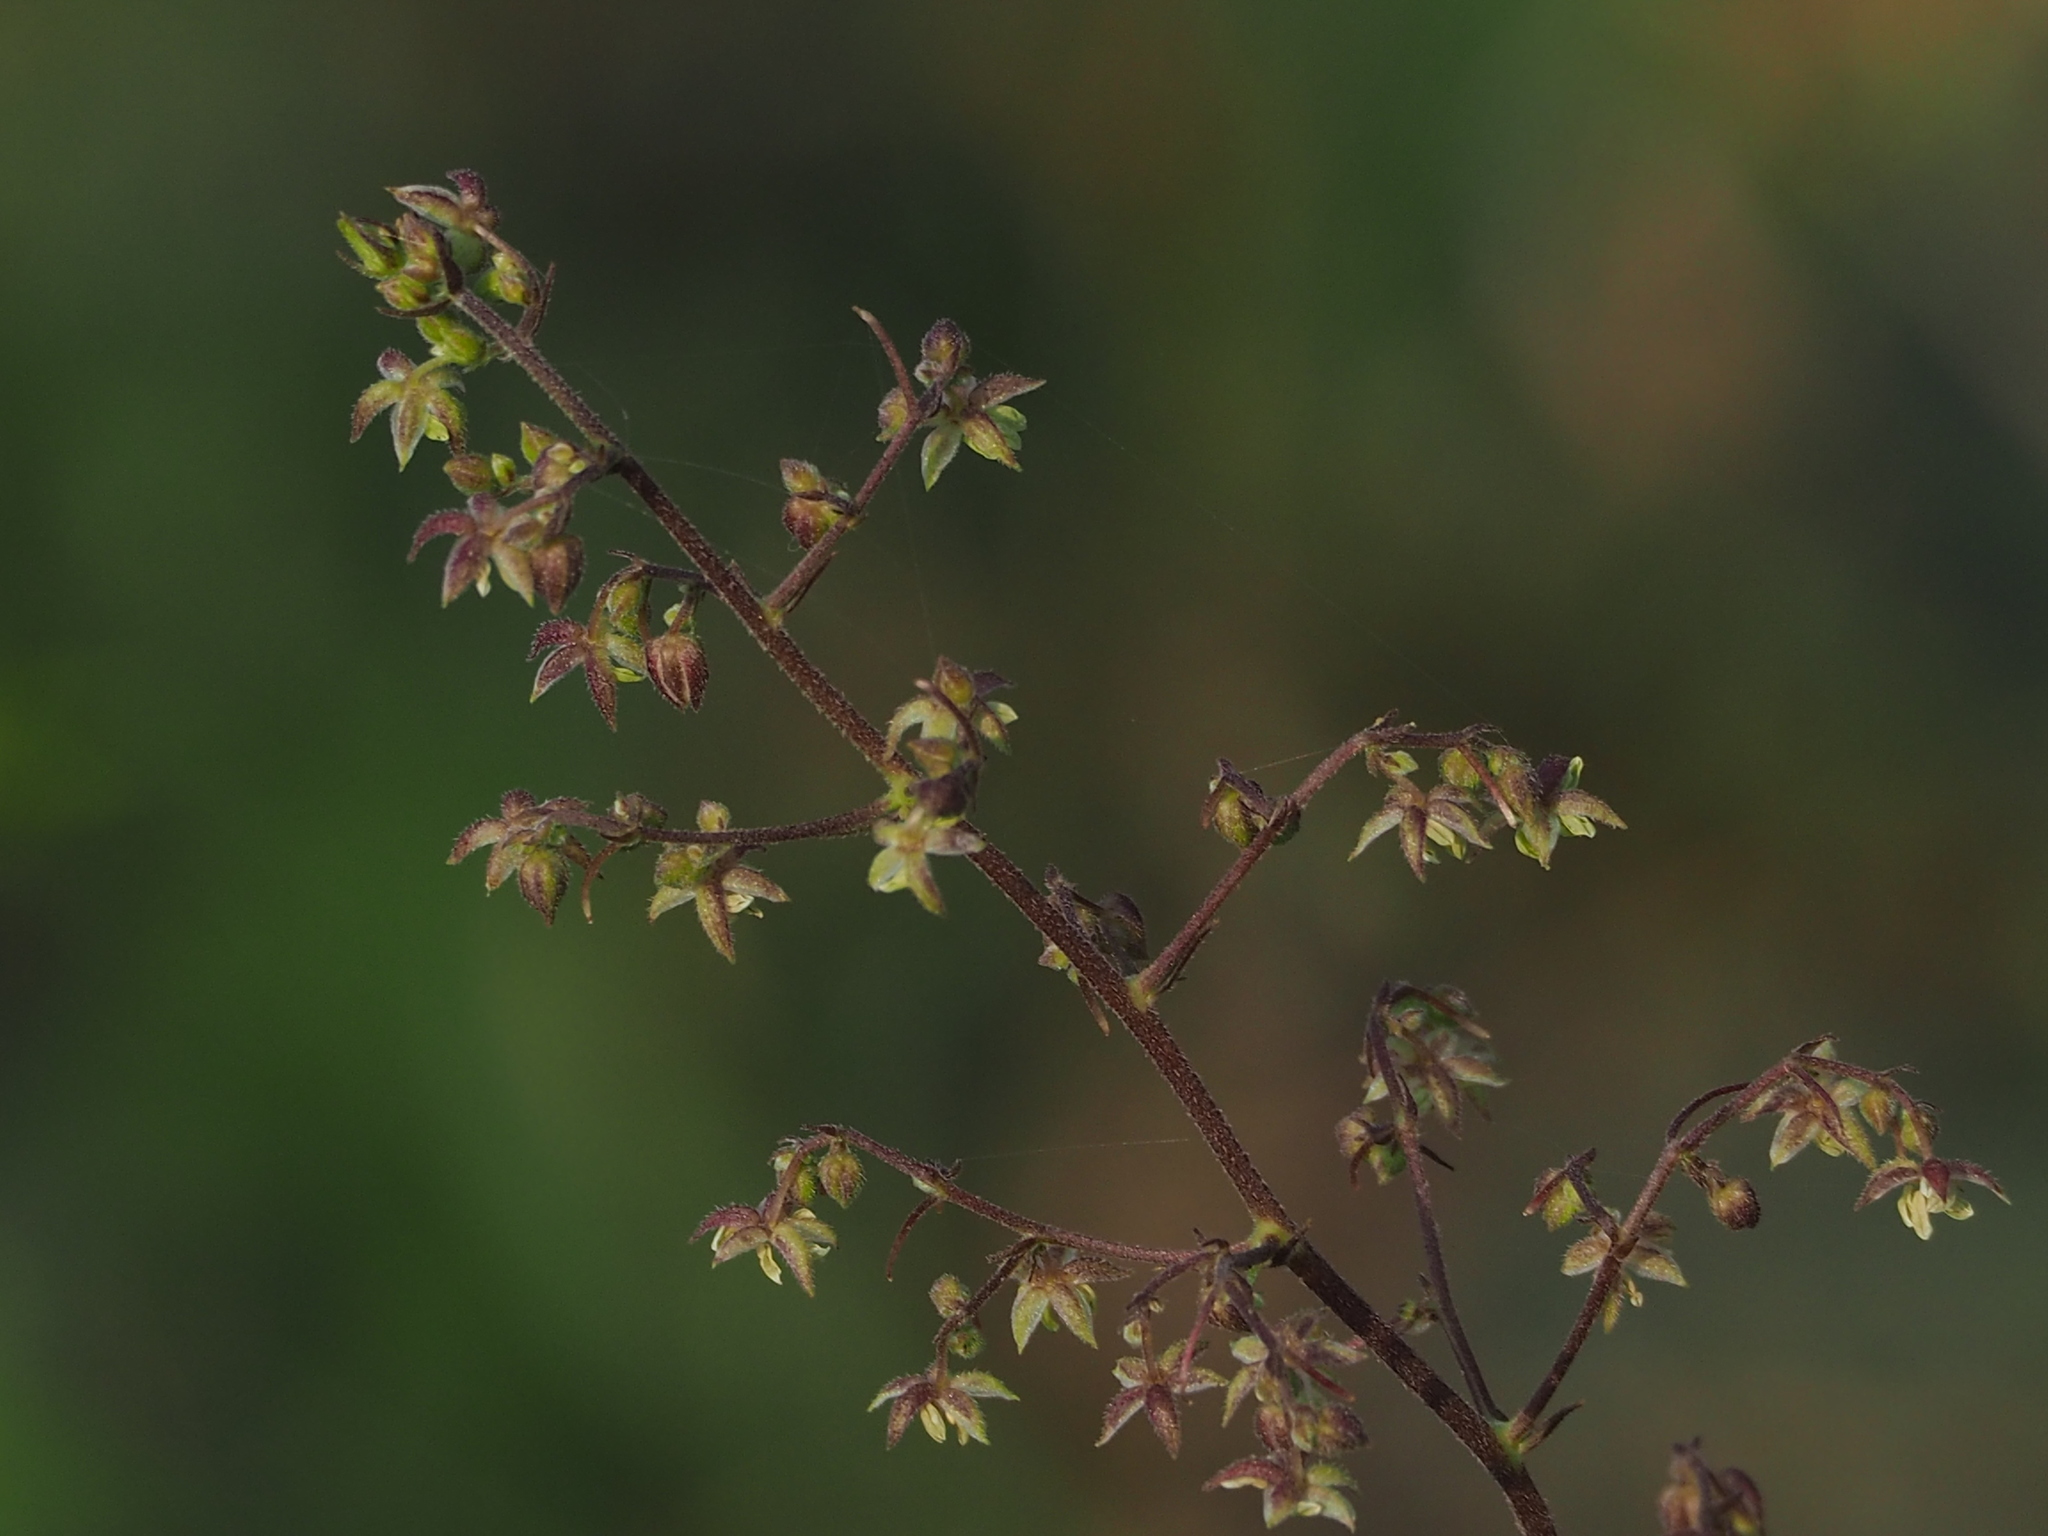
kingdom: Plantae
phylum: Tracheophyta
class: Magnoliopsida
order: Rosales
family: Cannabaceae
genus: Humulus
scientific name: Humulus scandens
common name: Japanese hop
